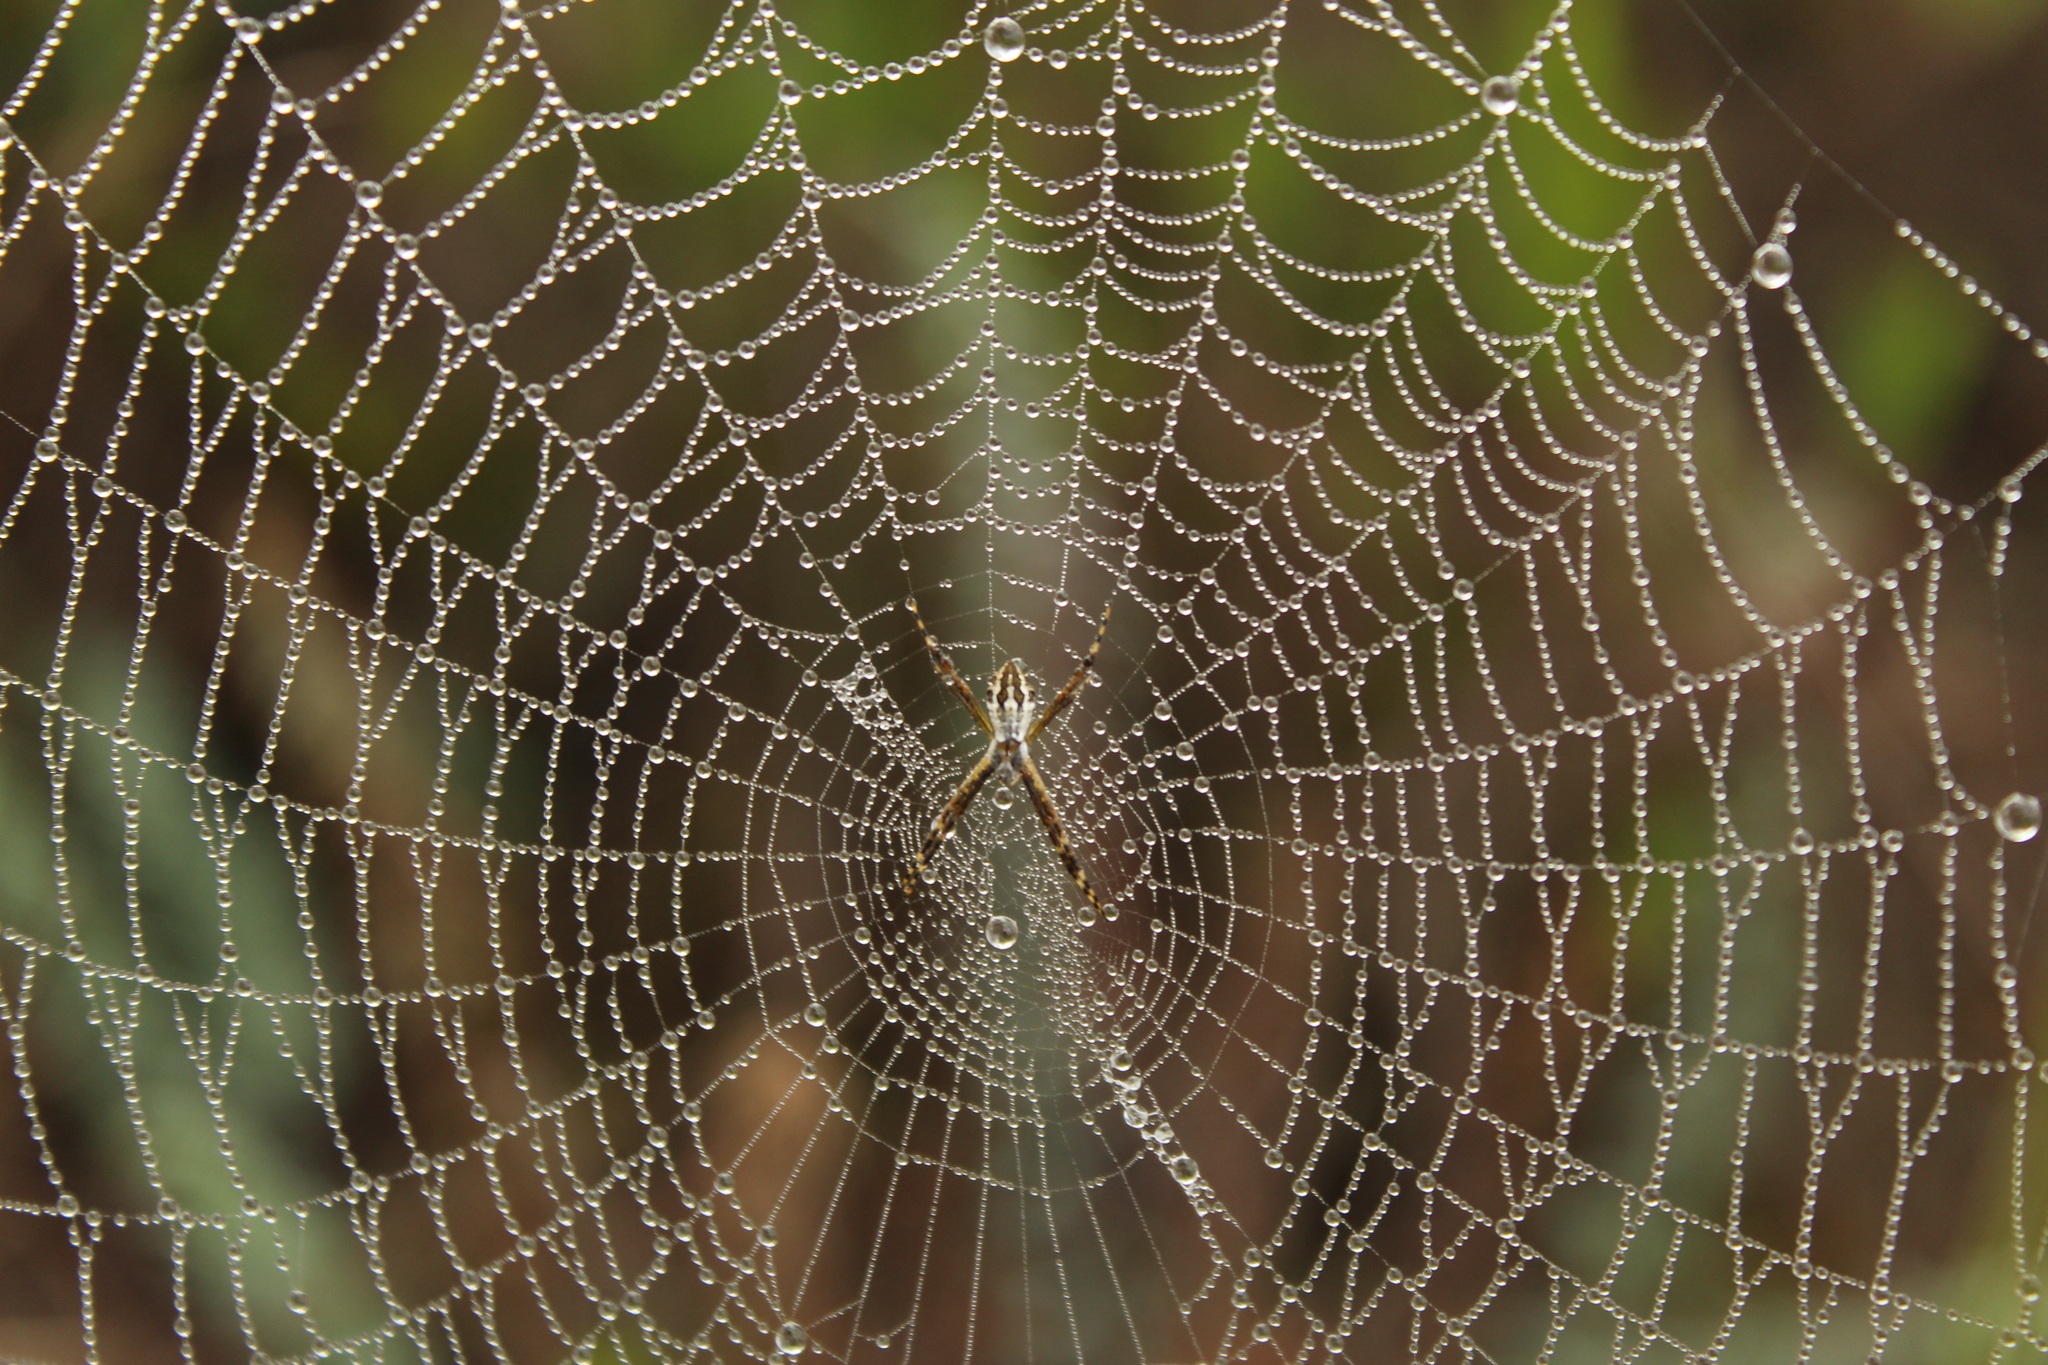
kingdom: Animalia
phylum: Arthropoda
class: Arachnida
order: Araneae
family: Araneidae
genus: Argiope
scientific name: Argiope argentata
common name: Orb weavers
